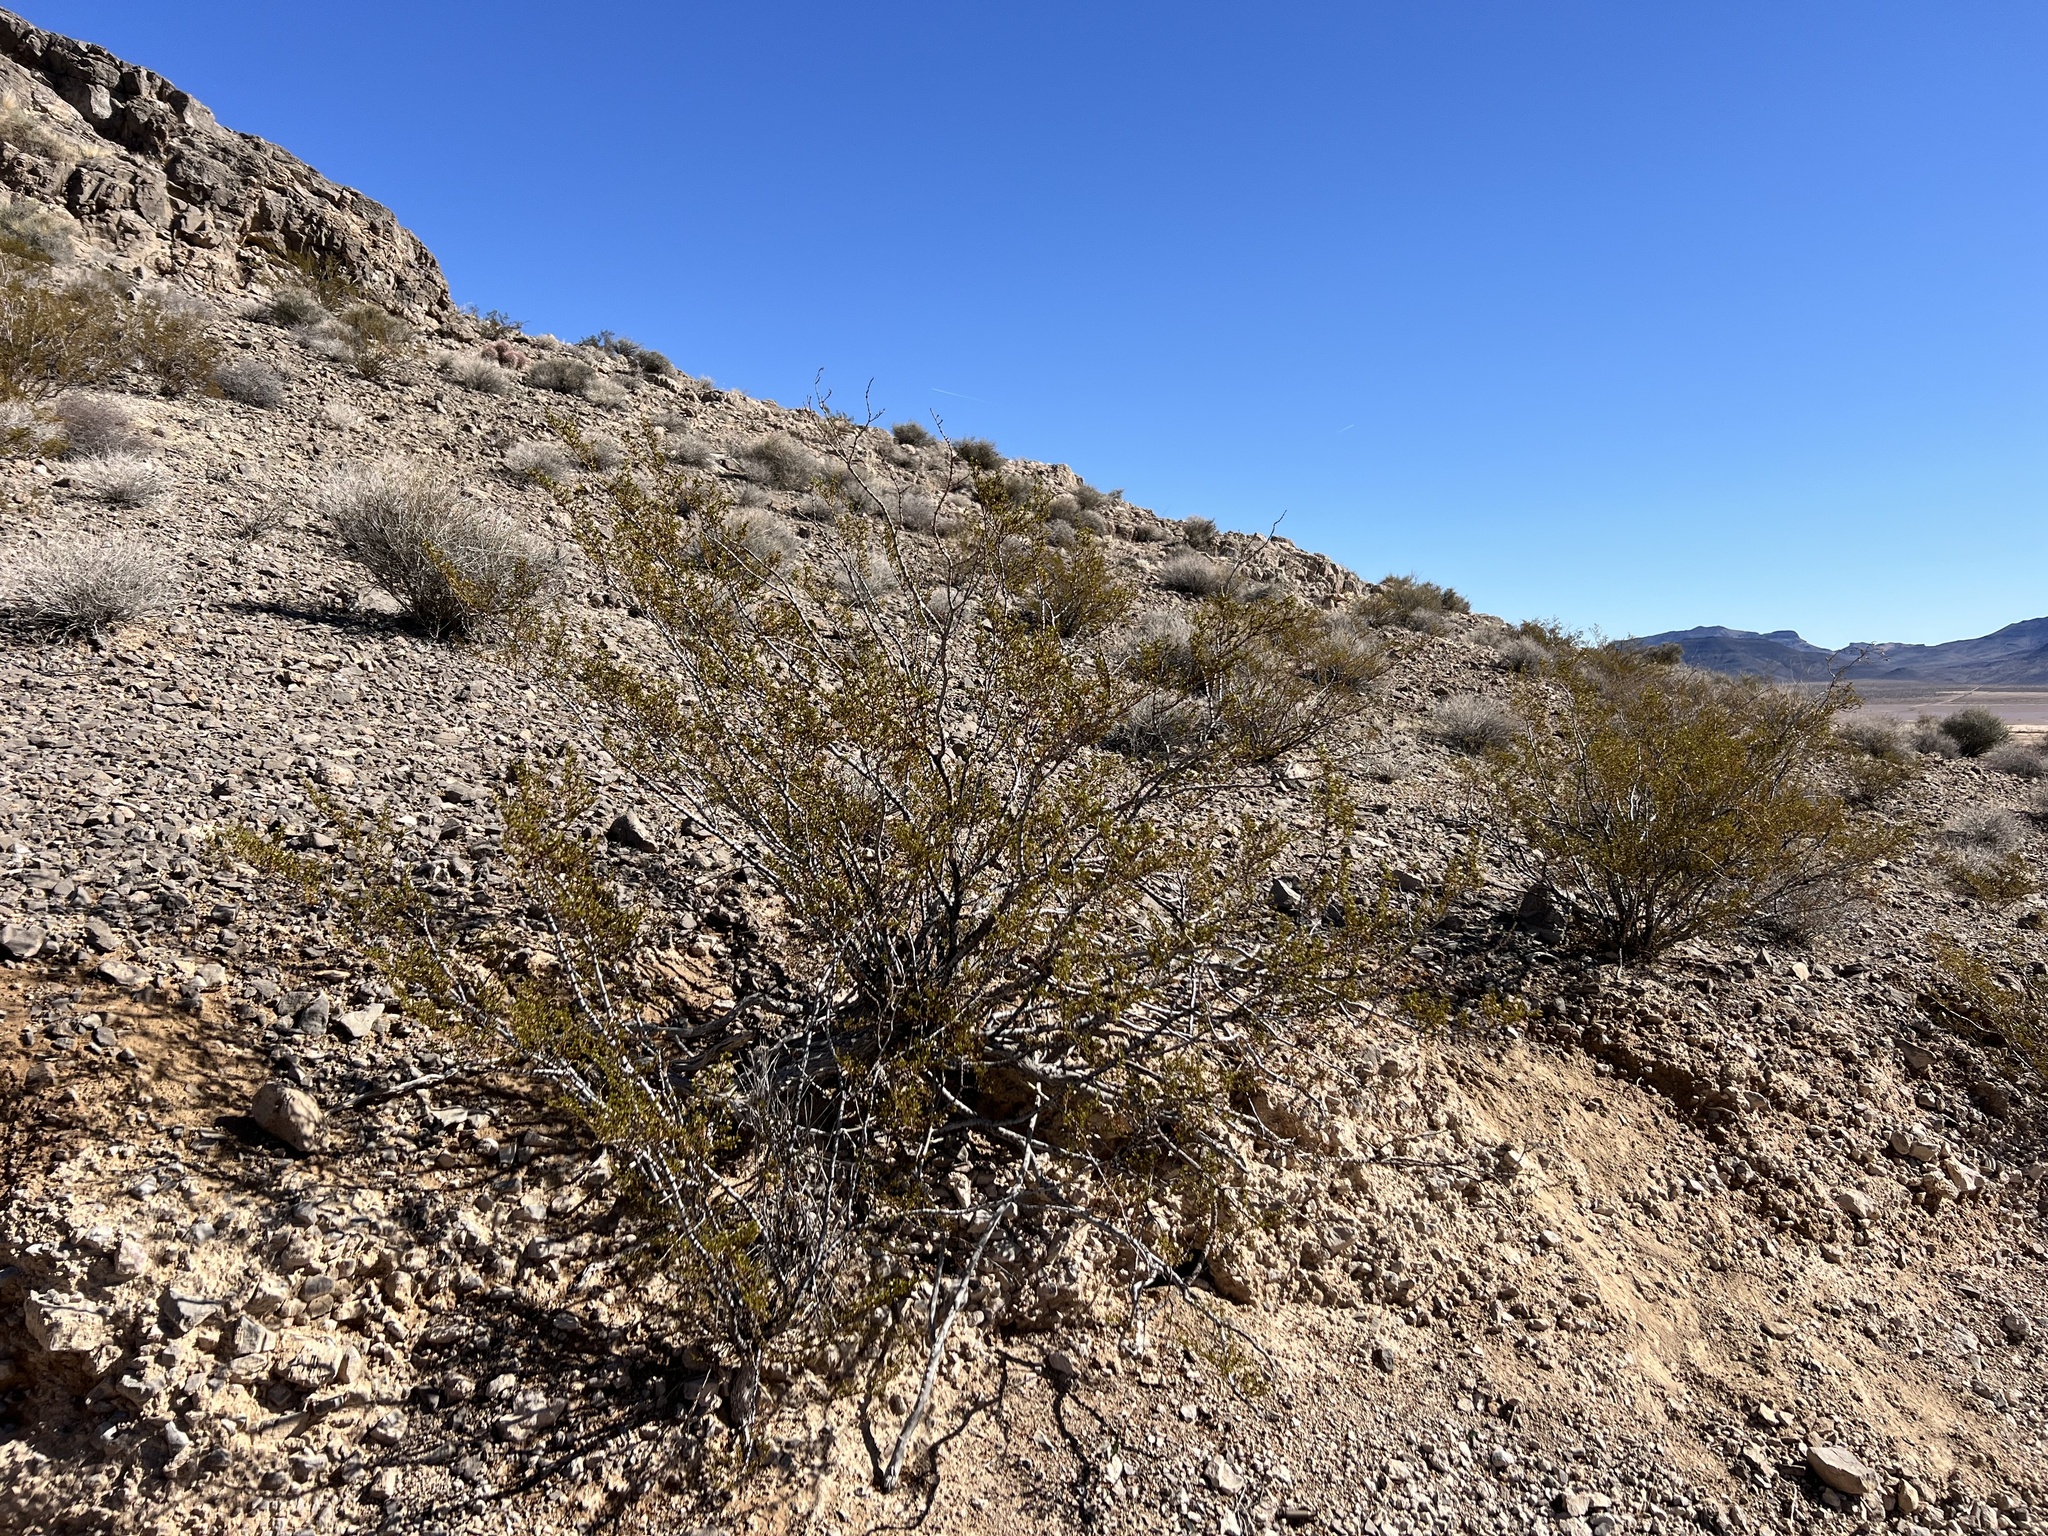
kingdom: Plantae
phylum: Tracheophyta
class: Magnoliopsida
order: Zygophyllales
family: Zygophyllaceae
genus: Larrea
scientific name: Larrea tridentata
